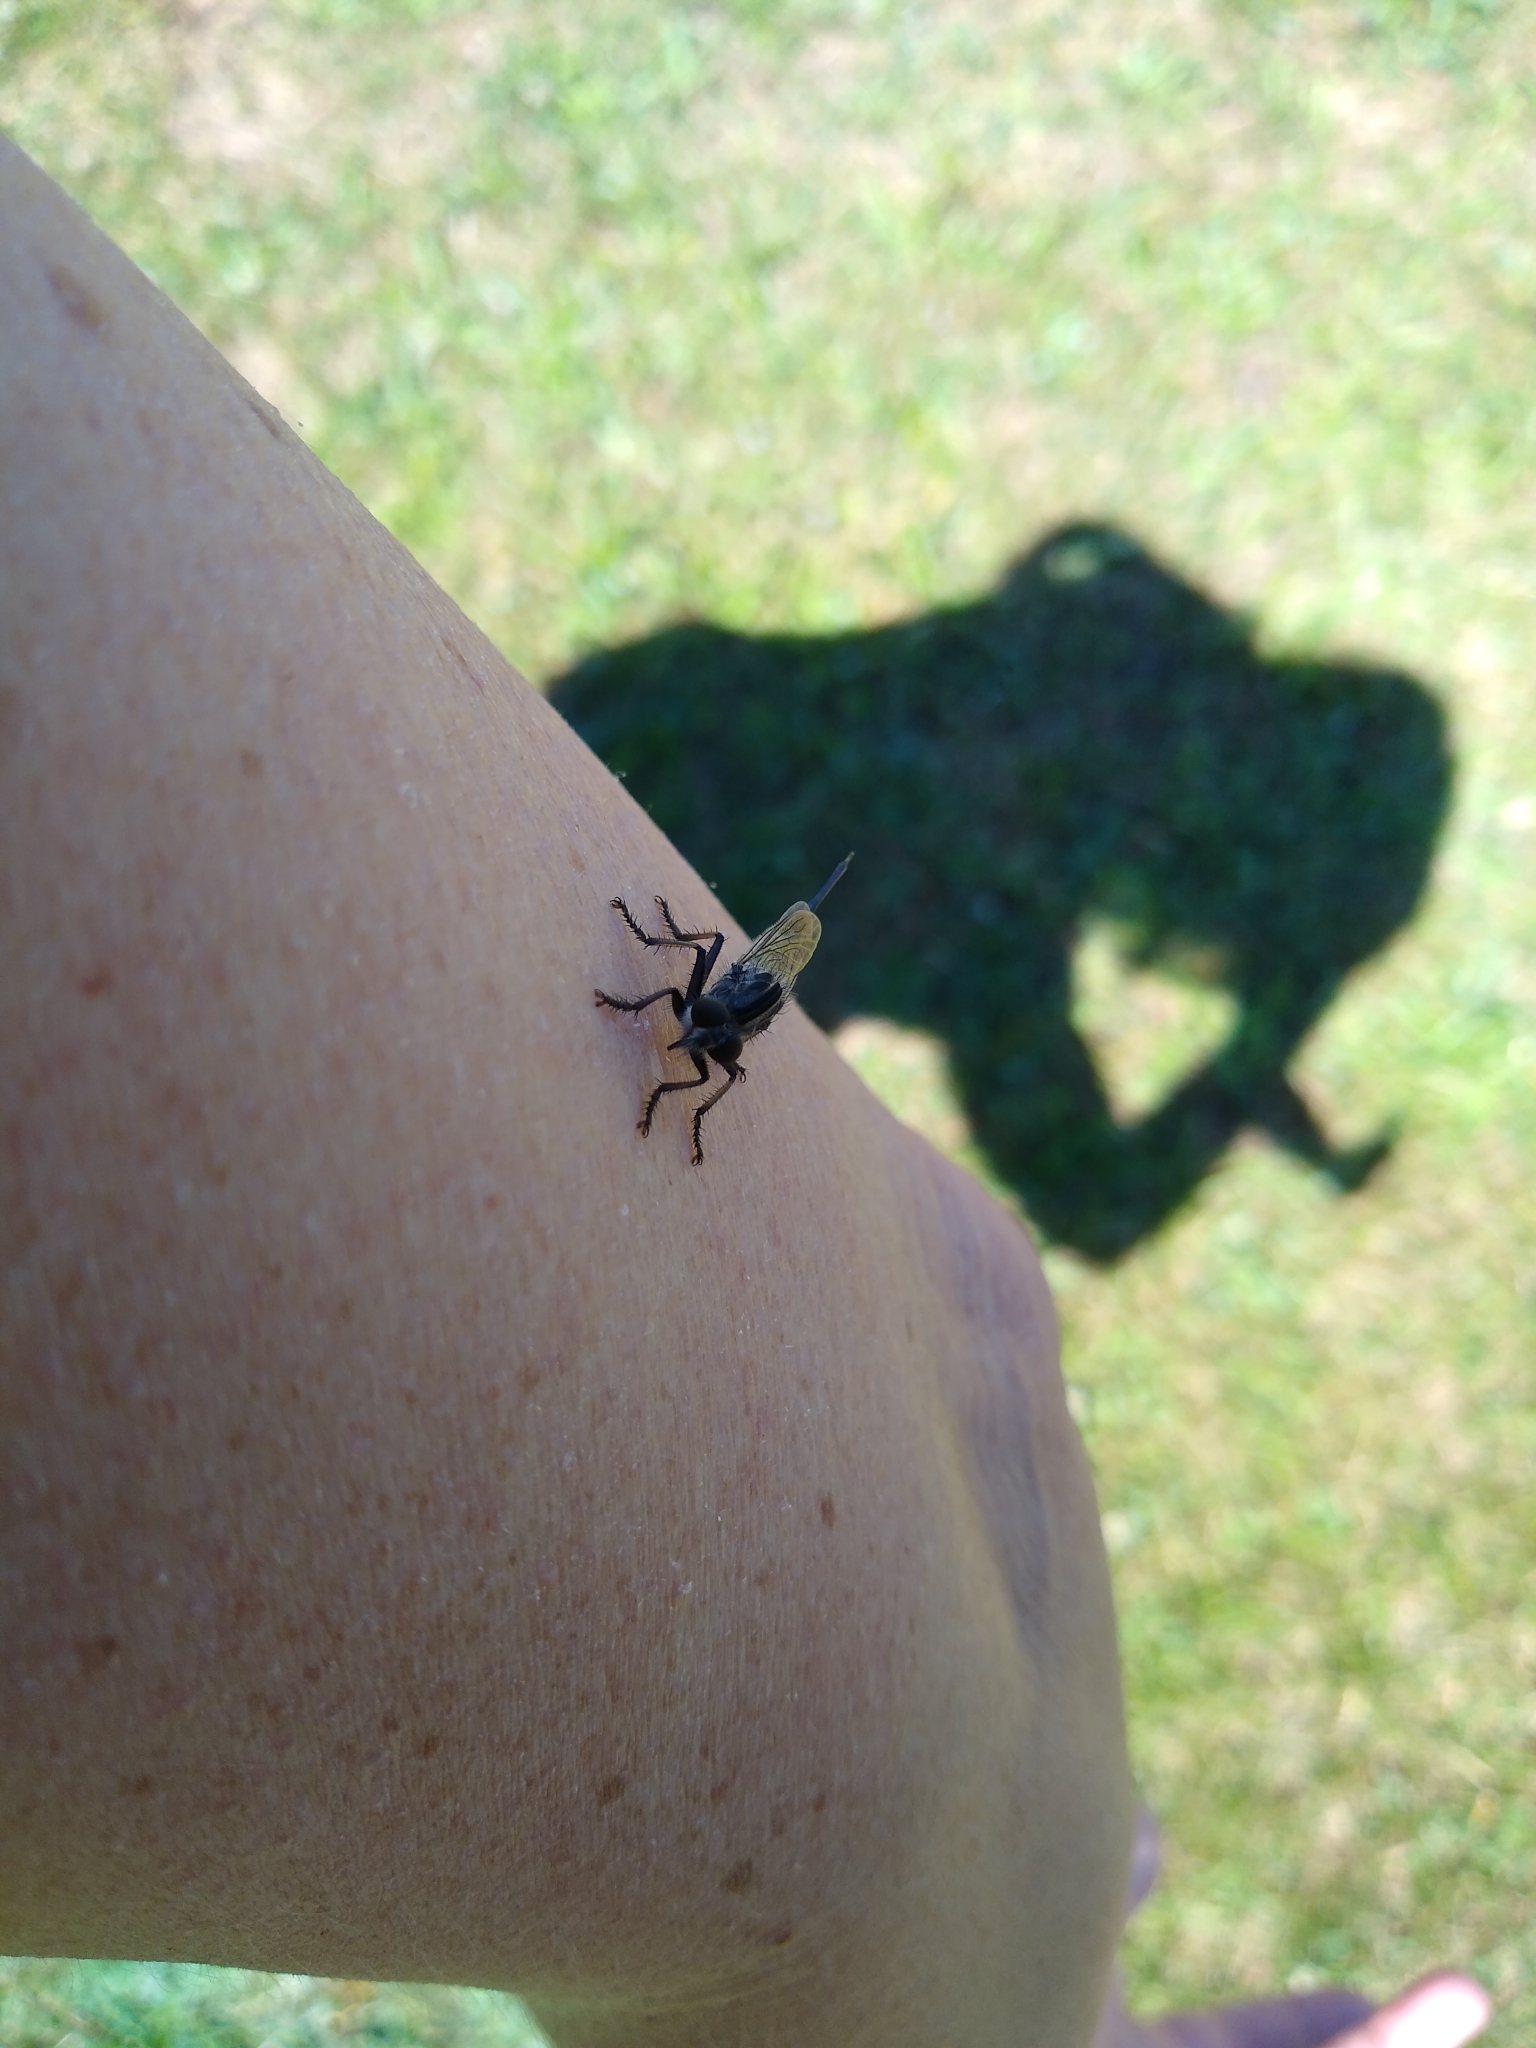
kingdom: Animalia
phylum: Arthropoda
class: Insecta
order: Diptera
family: Asilidae
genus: Efferia
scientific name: Efferia
